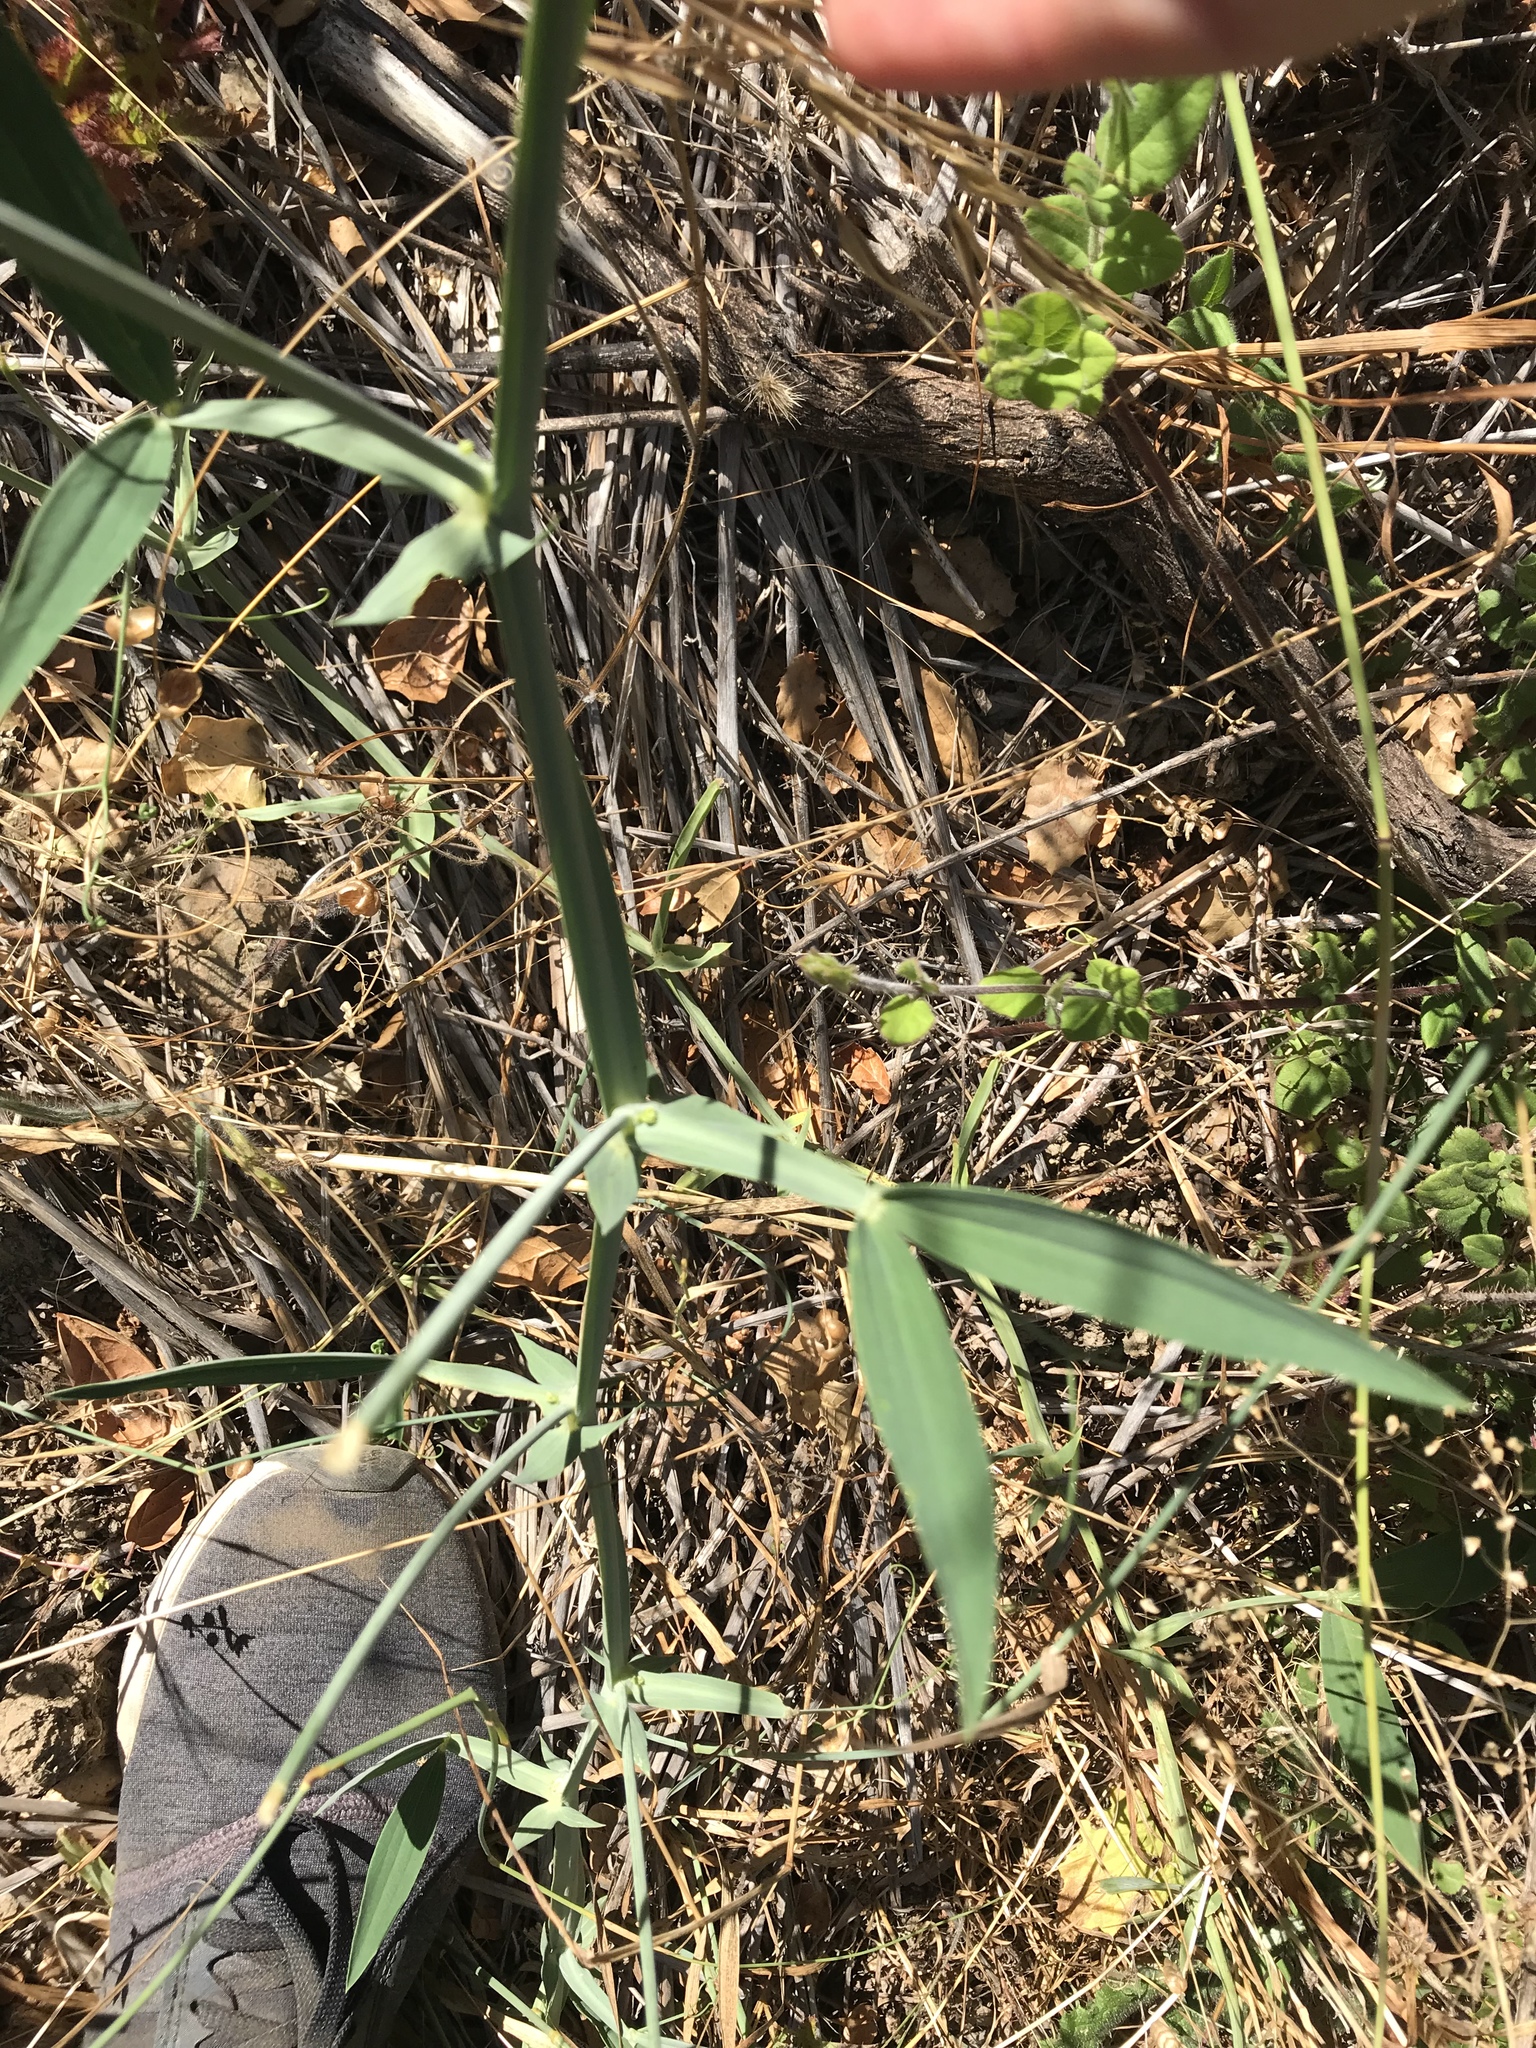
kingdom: Plantae
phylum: Tracheophyta
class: Magnoliopsida
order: Fabales
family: Fabaceae
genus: Lathyrus
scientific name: Lathyrus latifolius
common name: Perennial pea
